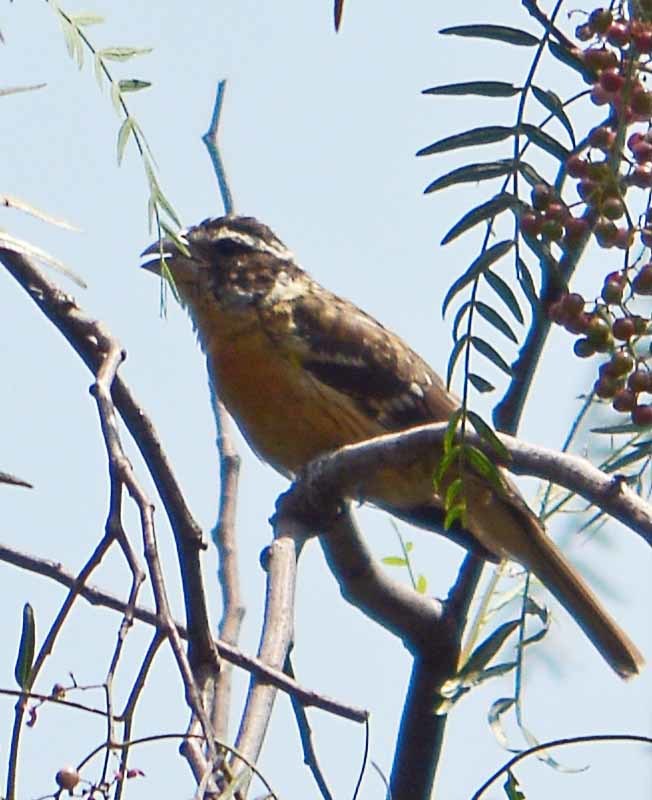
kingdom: Animalia
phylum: Chordata
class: Aves
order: Passeriformes
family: Cardinalidae
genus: Pheucticus
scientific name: Pheucticus melanocephalus
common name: Black-headed grosbeak
